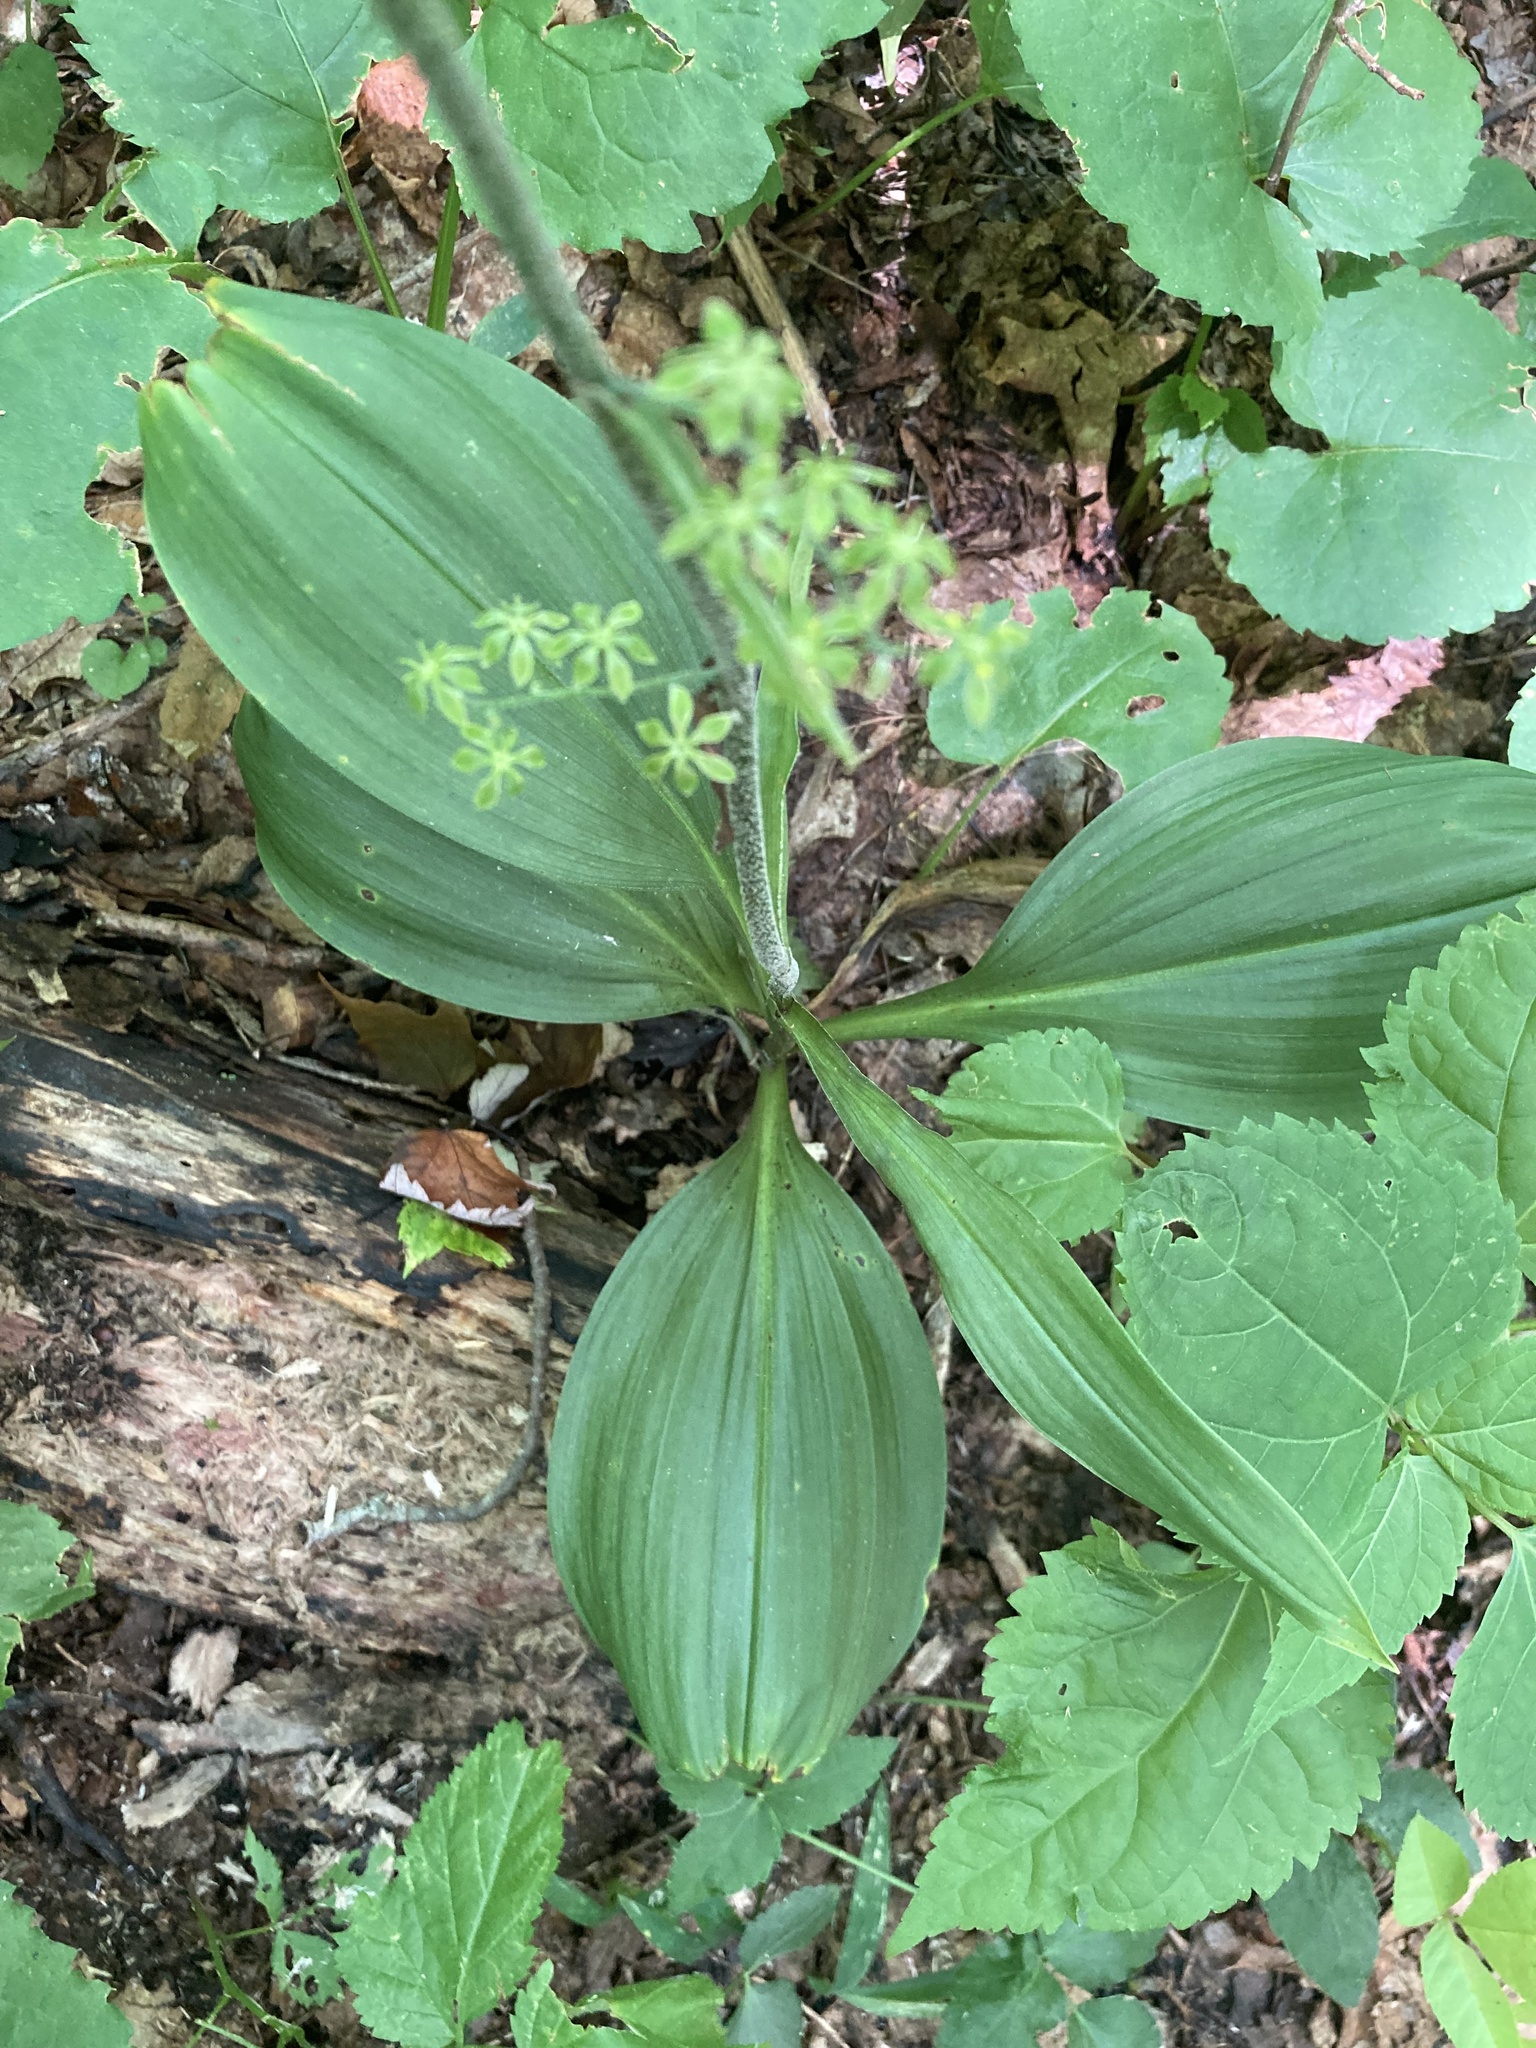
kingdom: Plantae
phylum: Tracheophyta
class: Liliopsida
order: Liliales
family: Melanthiaceae
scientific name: Melanthiaceae
